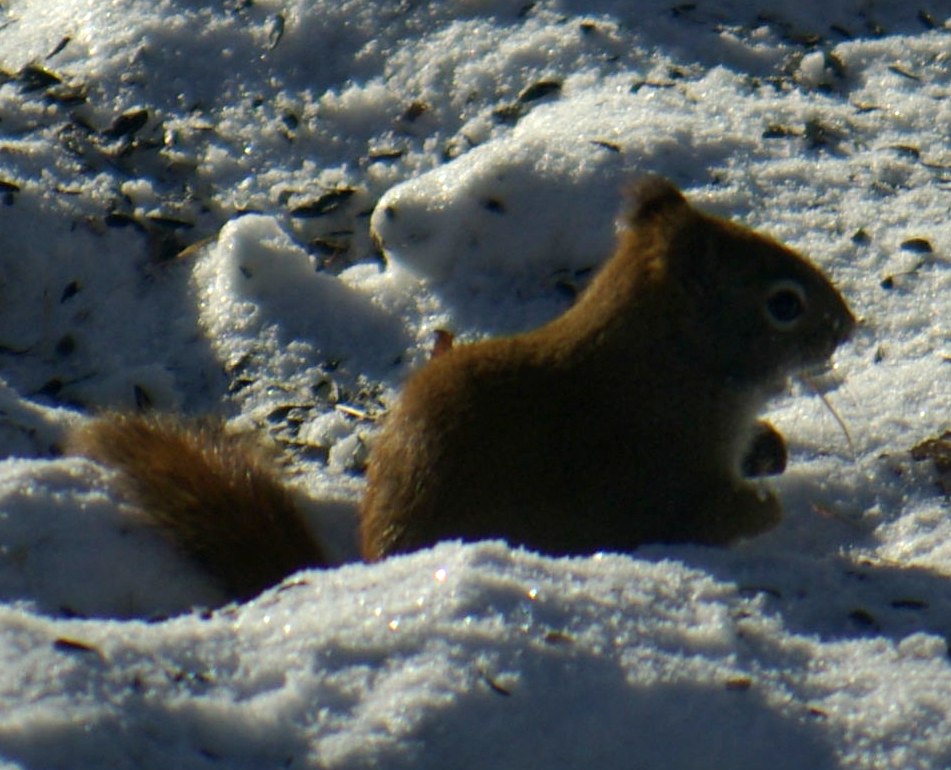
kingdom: Animalia
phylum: Chordata
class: Mammalia
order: Rodentia
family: Sciuridae
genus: Tamiasciurus
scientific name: Tamiasciurus hudsonicus
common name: Red squirrel
